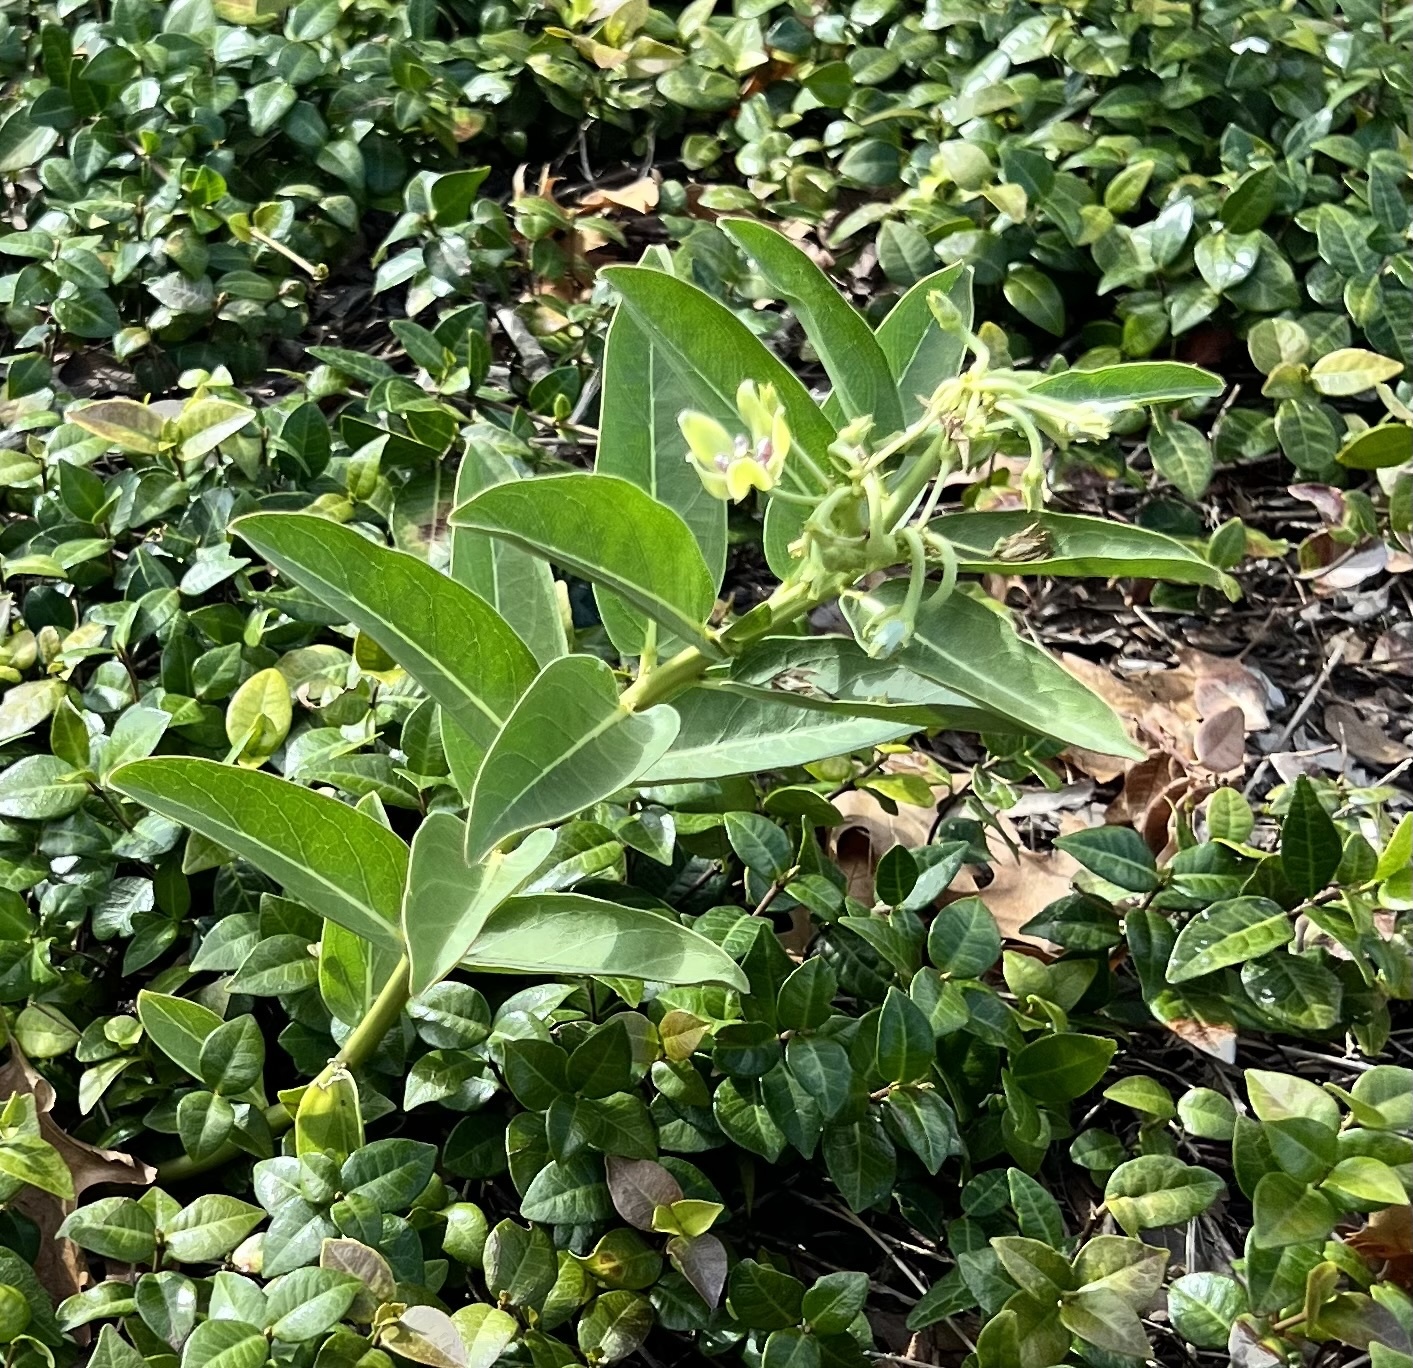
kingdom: Plantae
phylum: Tracheophyta
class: Magnoliopsida
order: Gentianales
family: Apocynaceae
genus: Asclepias
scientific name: Asclepias viridis
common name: Antelope-horns
